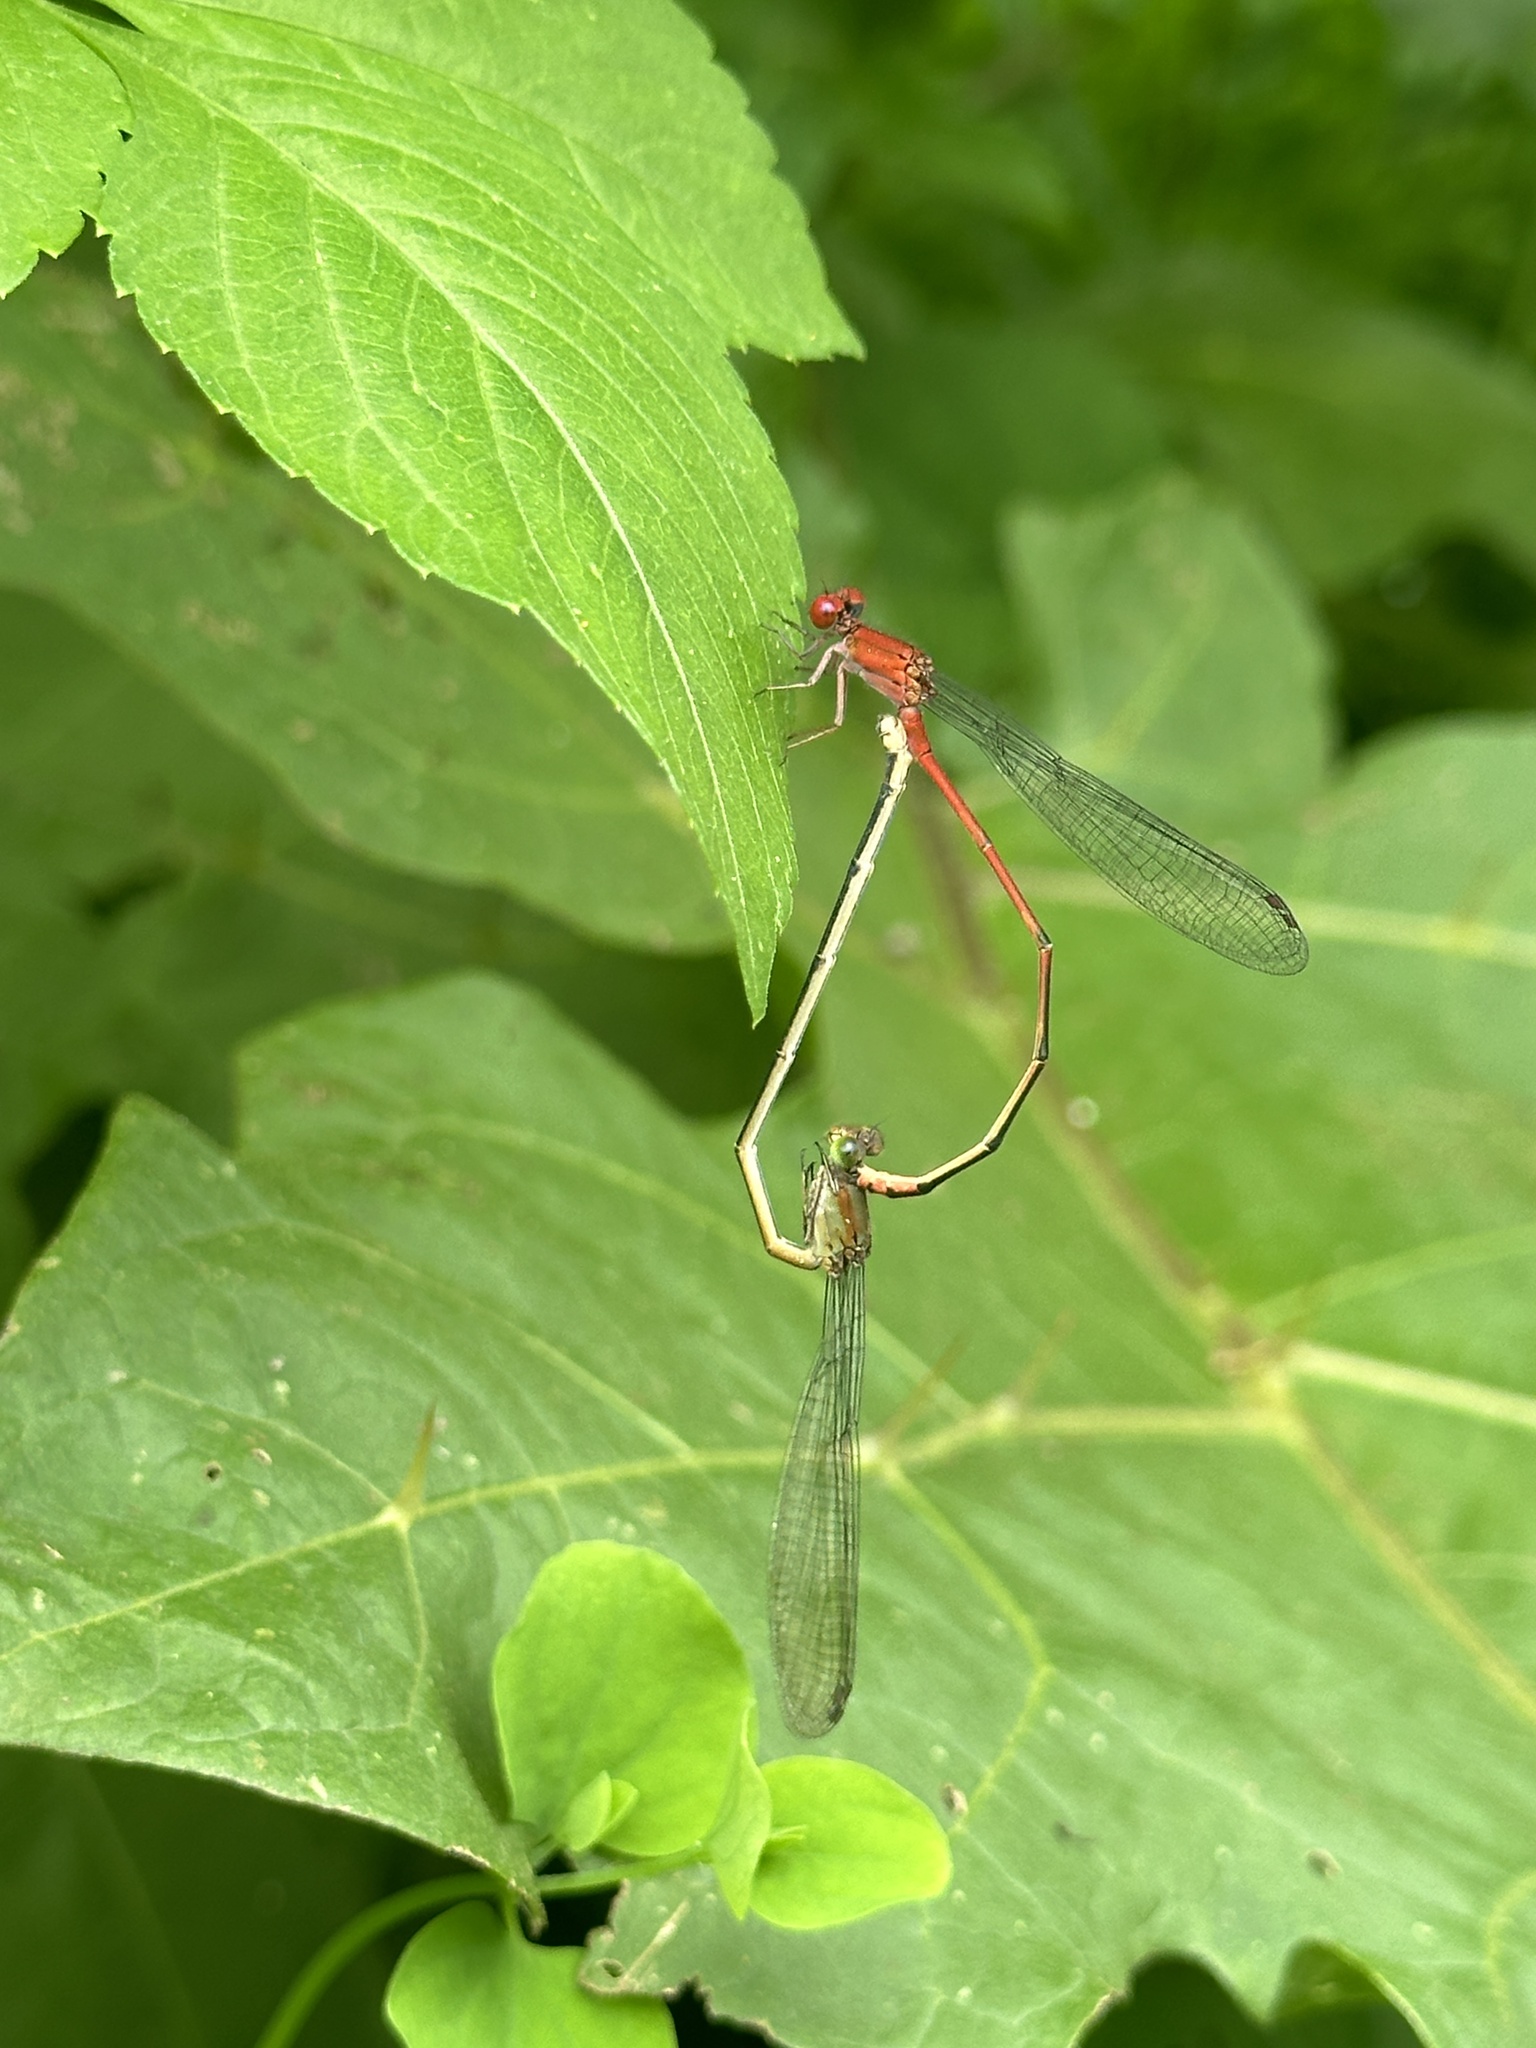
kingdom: Animalia
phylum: Arthropoda
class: Insecta
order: Odonata
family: Coenagrionidae
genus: Pseudagrion
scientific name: Pseudagrion pilidorsum
